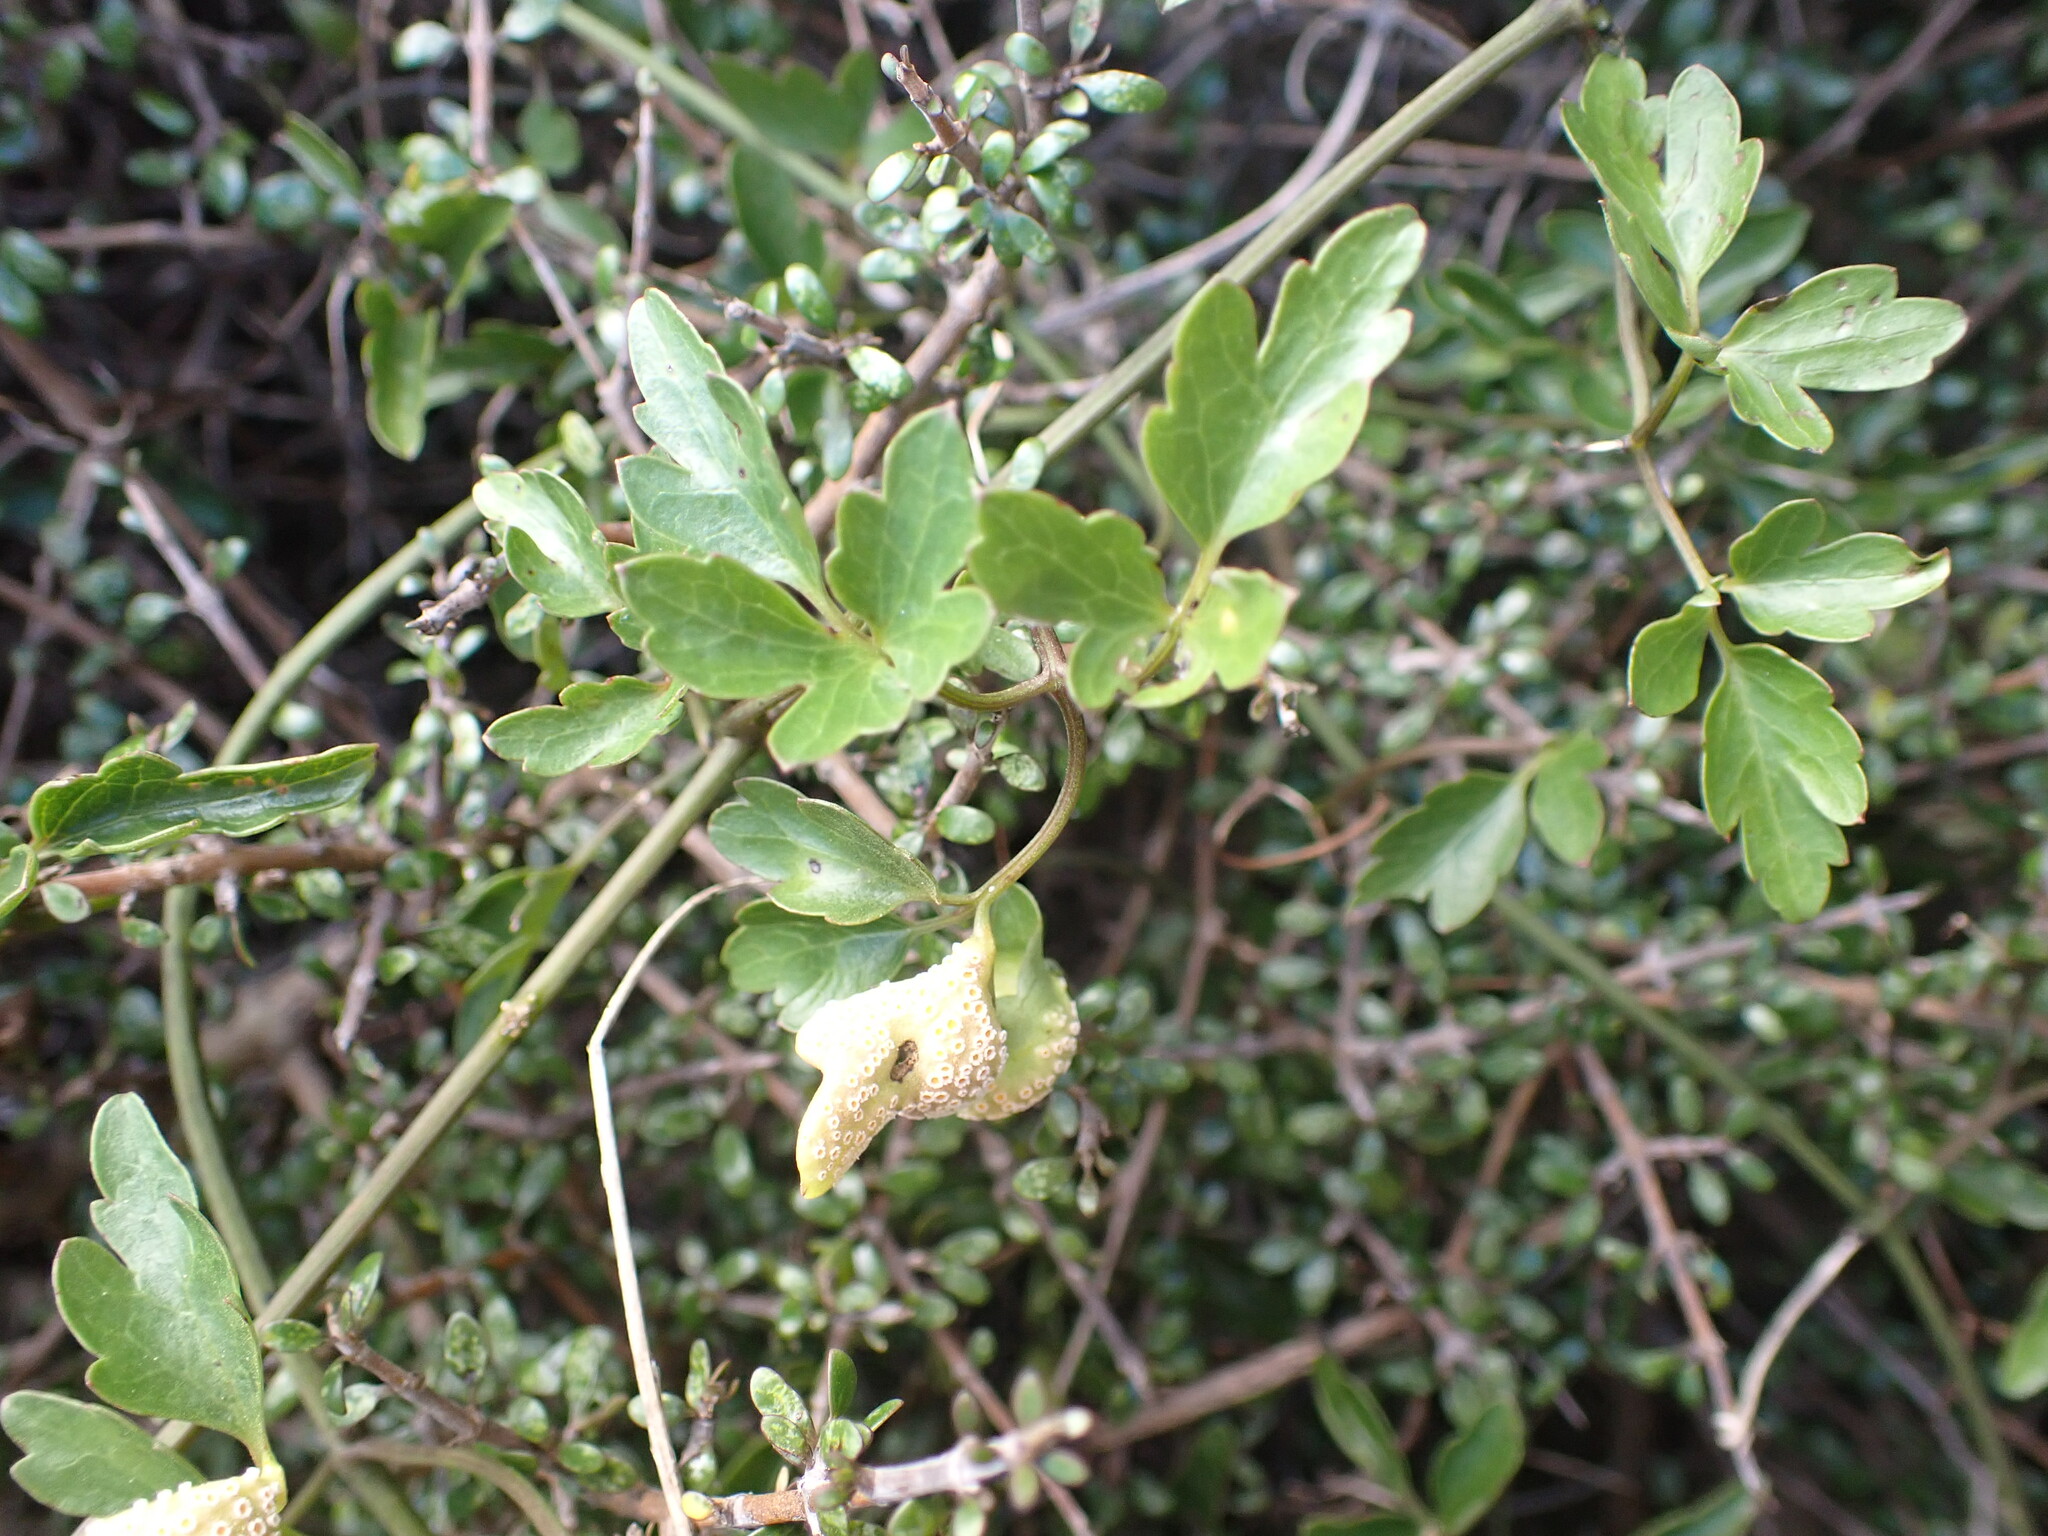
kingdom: Fungi
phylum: Basidiomycota
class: Pucciniomycetes
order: Pucciniales
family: Pucciniaceae
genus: Puccinia
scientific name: Puccinia otagensis
